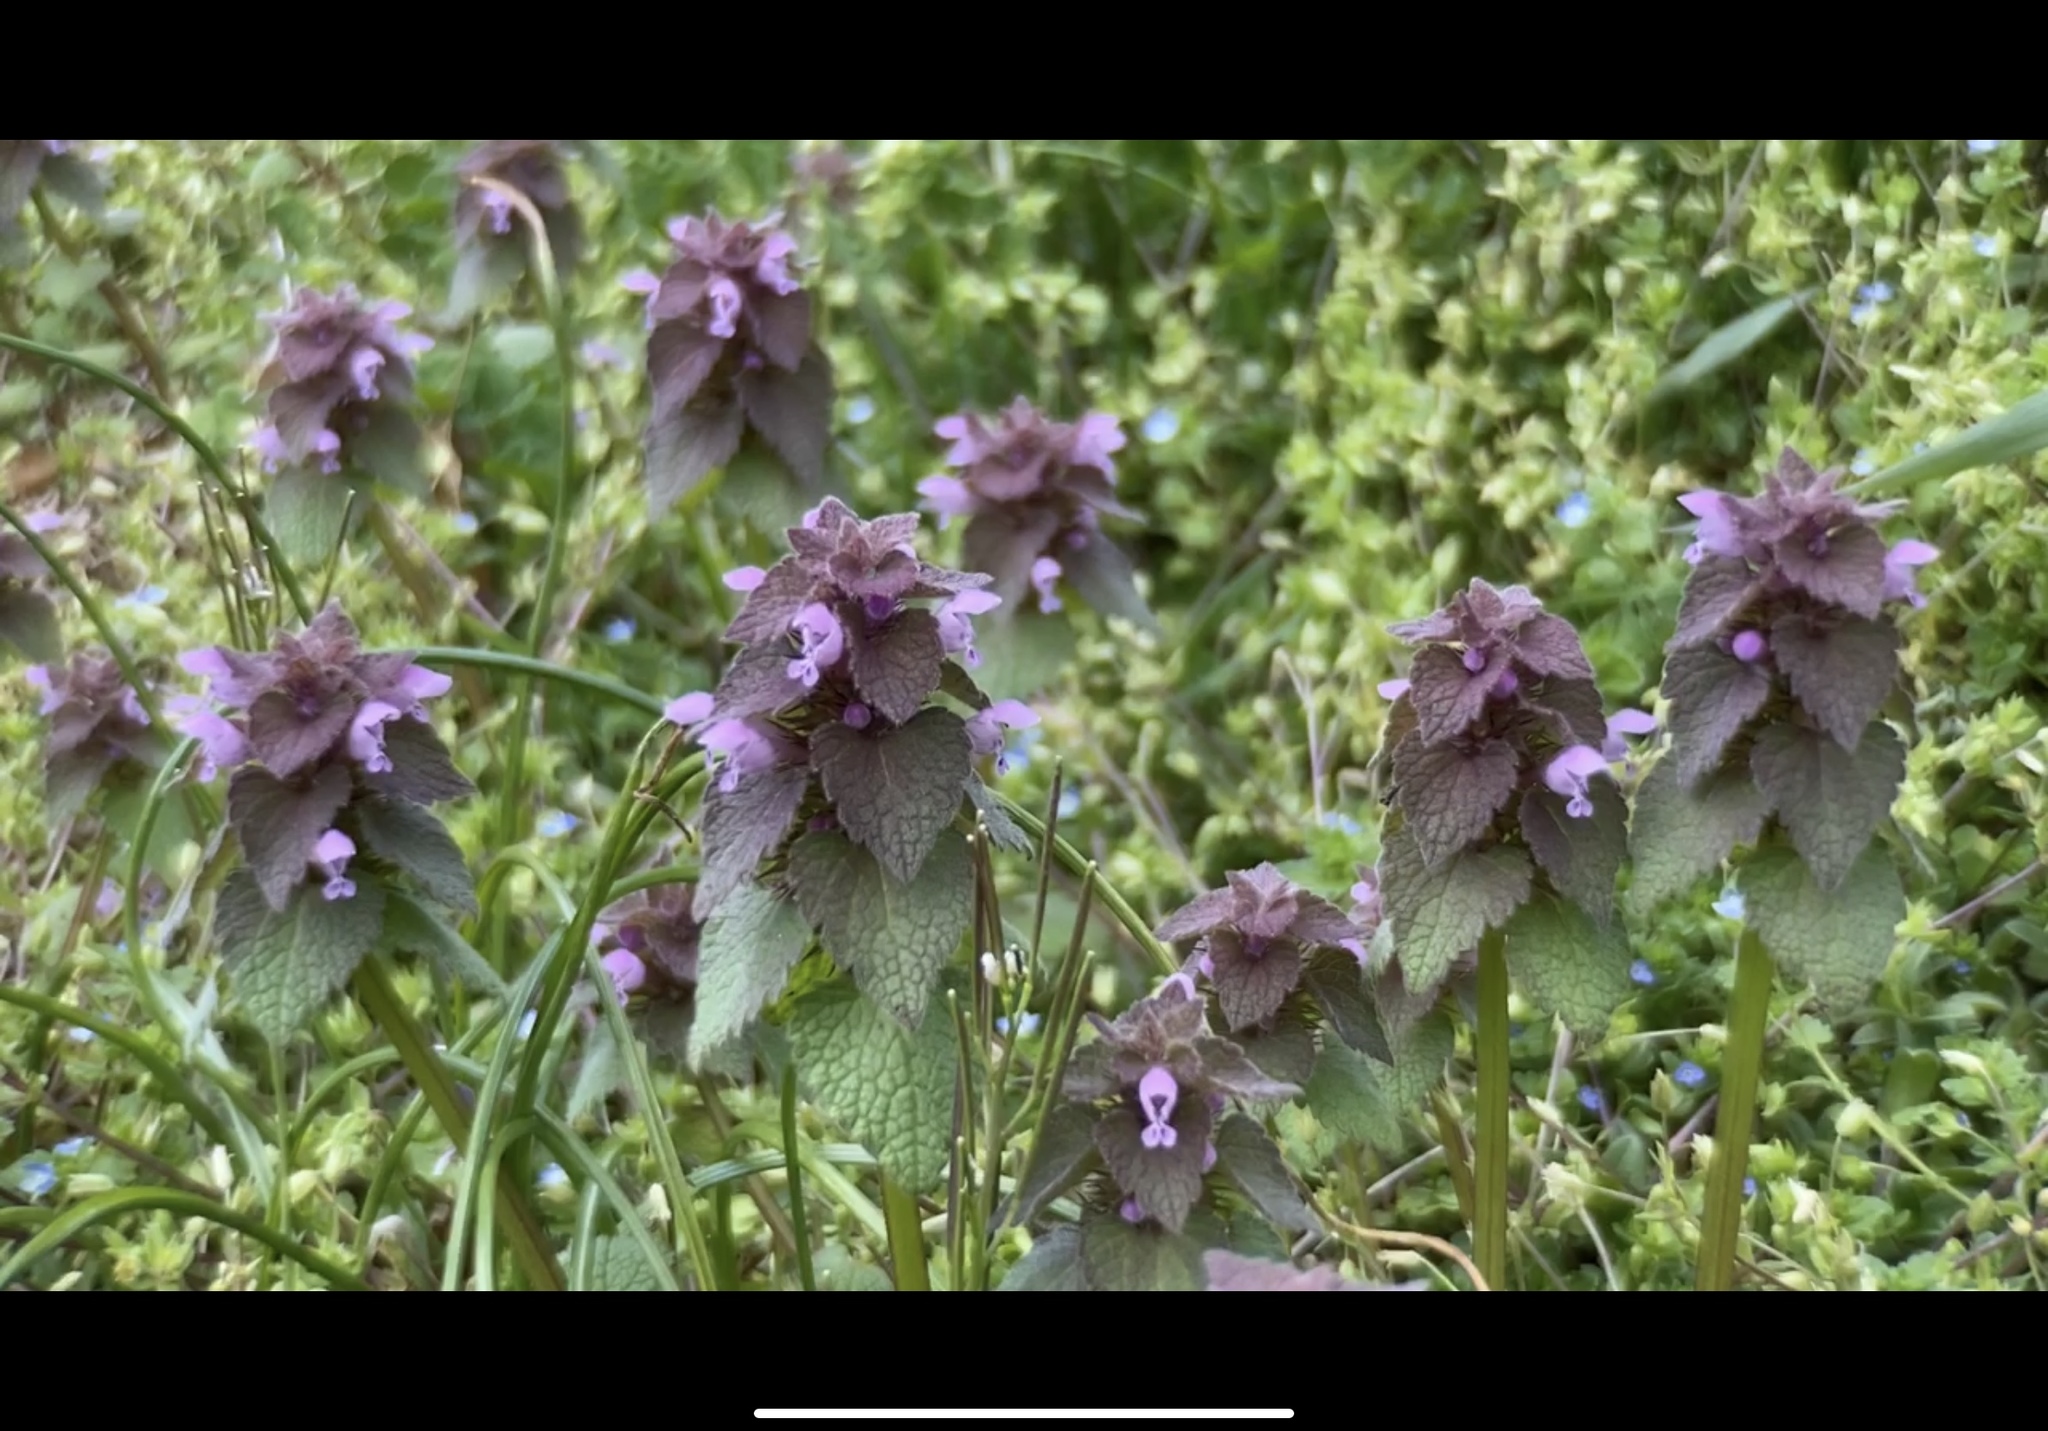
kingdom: Plantae
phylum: Tracheophyta
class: Magnoliopsida
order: Lamiales
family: Lamiaceae
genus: Lamium
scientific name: Lamium purpureum
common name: Red dead-nettle
